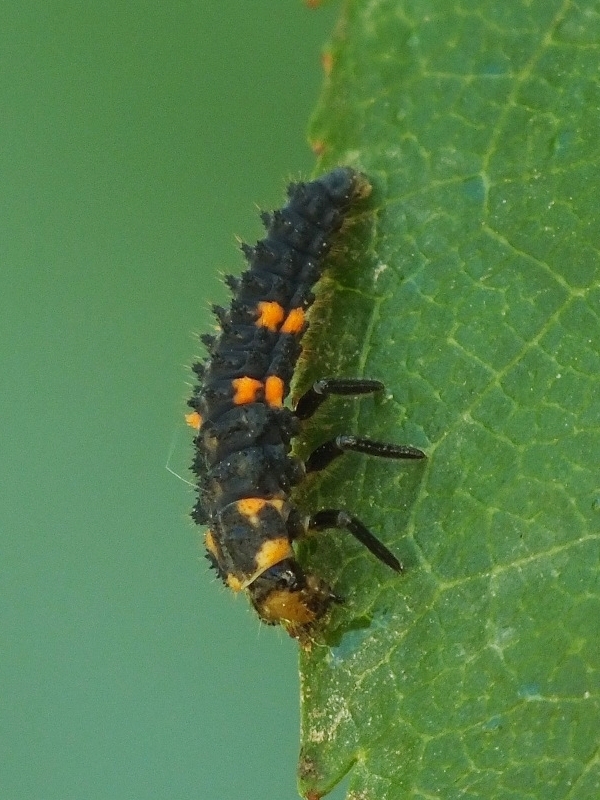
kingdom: Animalia
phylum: Arthropoda
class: Insecta
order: Coleoptera
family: Coccinellidae
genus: Coccinella
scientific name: Coccinella septempunctata
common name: Sevenspotted lady beetle
